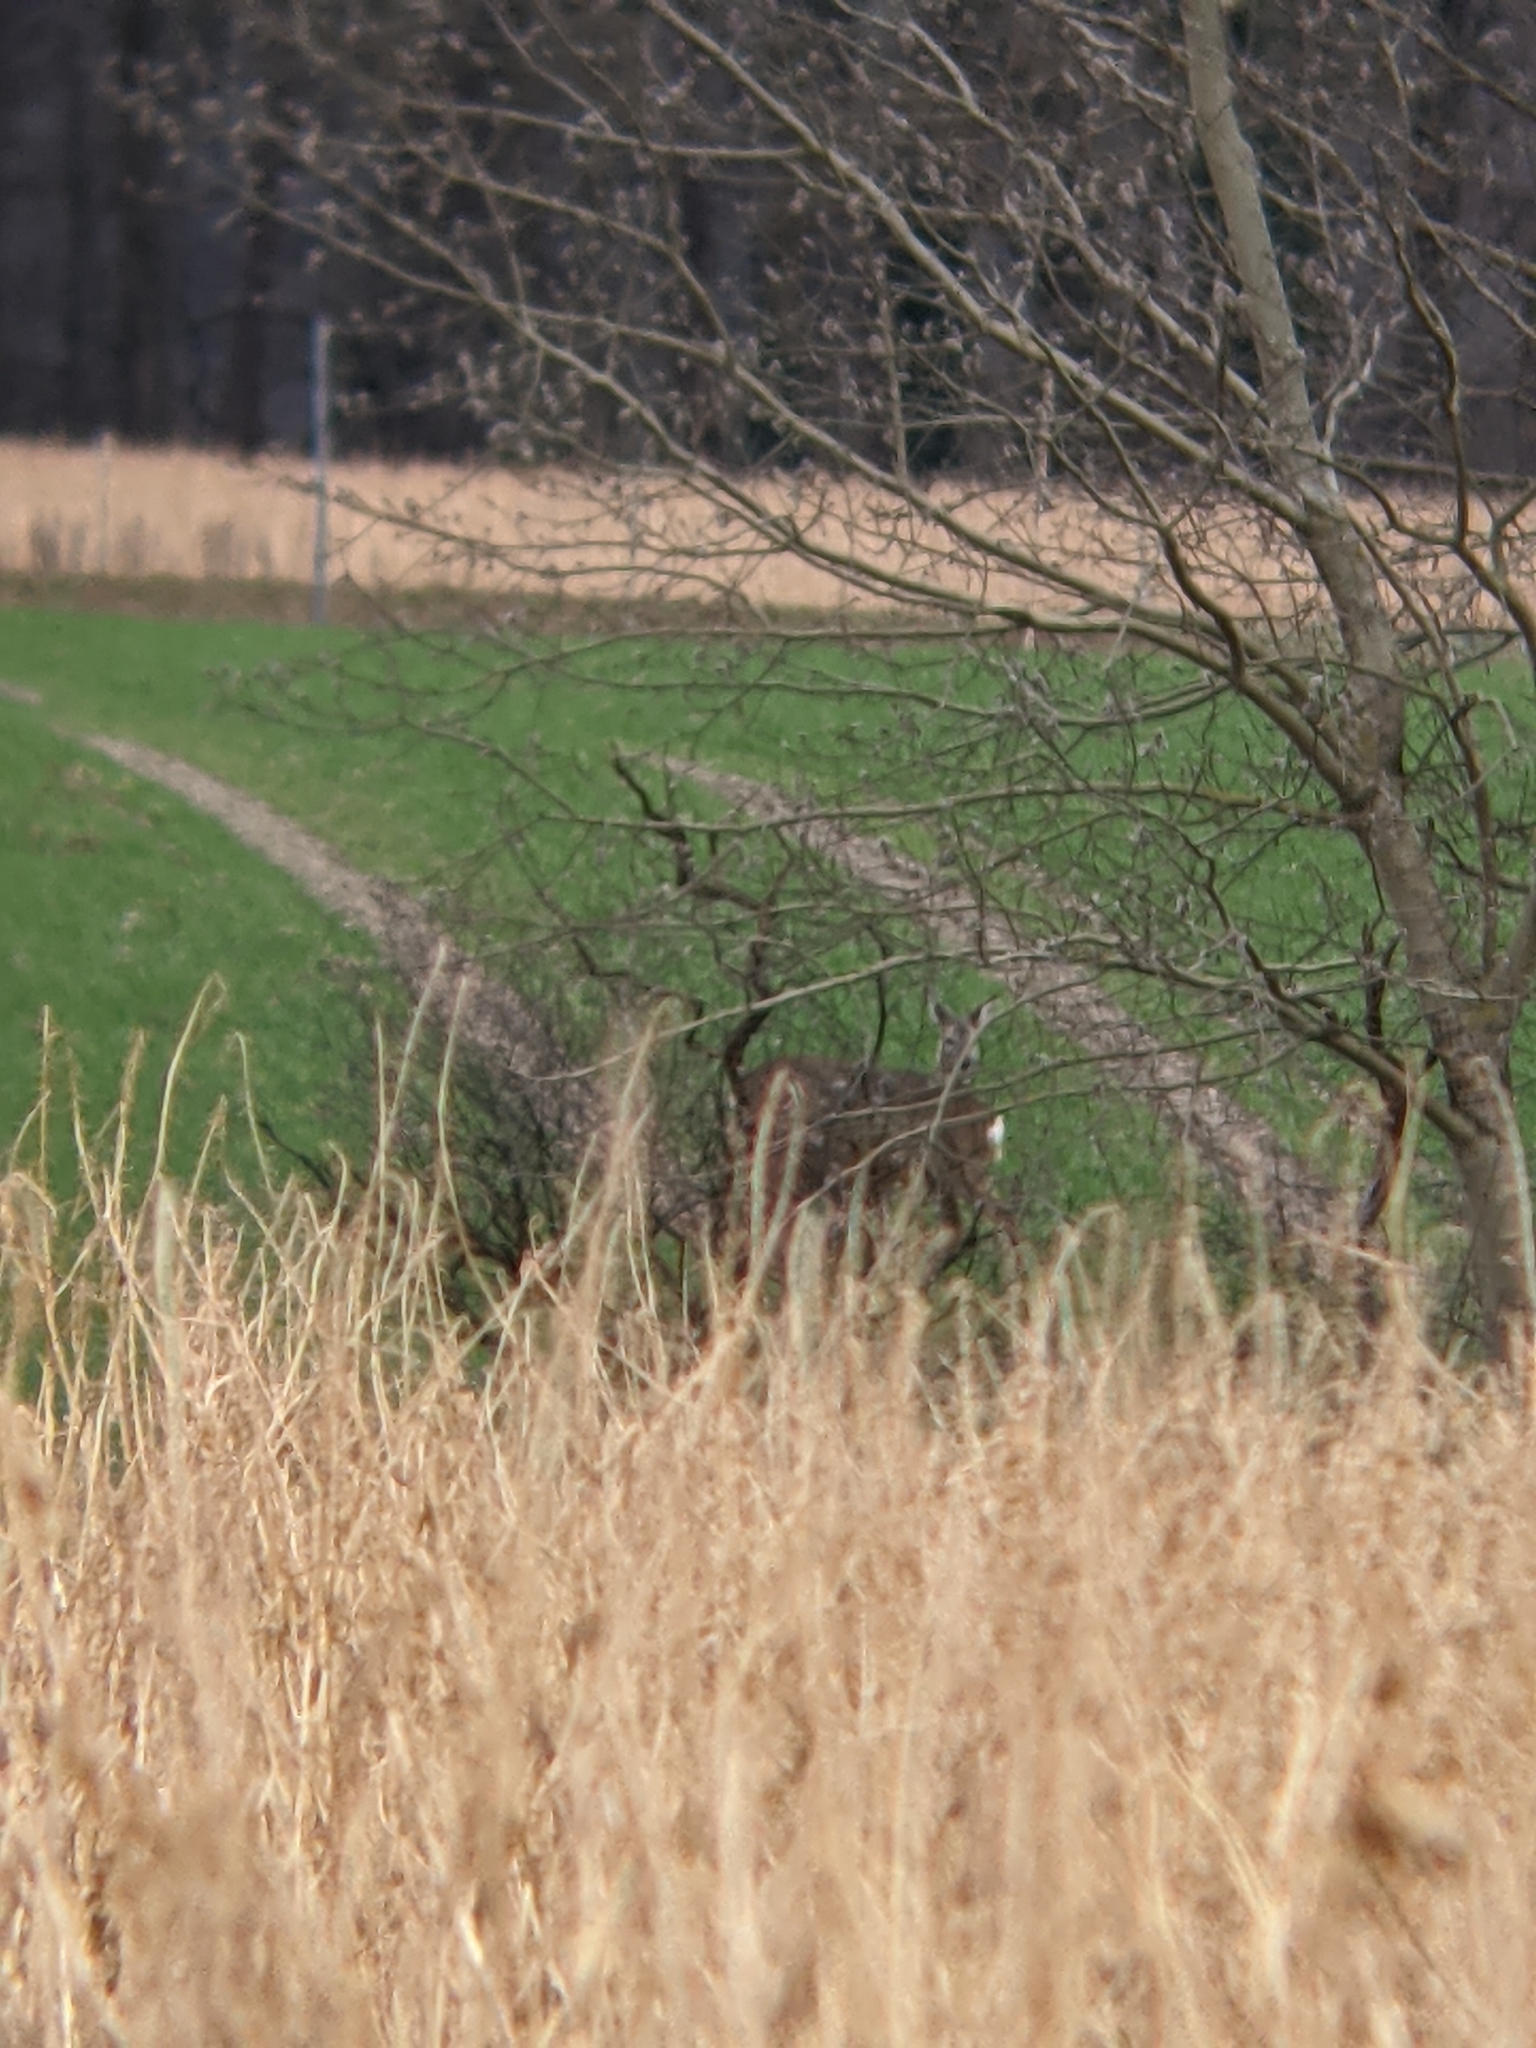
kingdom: Animalia
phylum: Chordata
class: Mammalia
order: Artiodactyla
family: Cervidae
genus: Capreolus
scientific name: Capreolus capreolus
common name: Western roe deer
